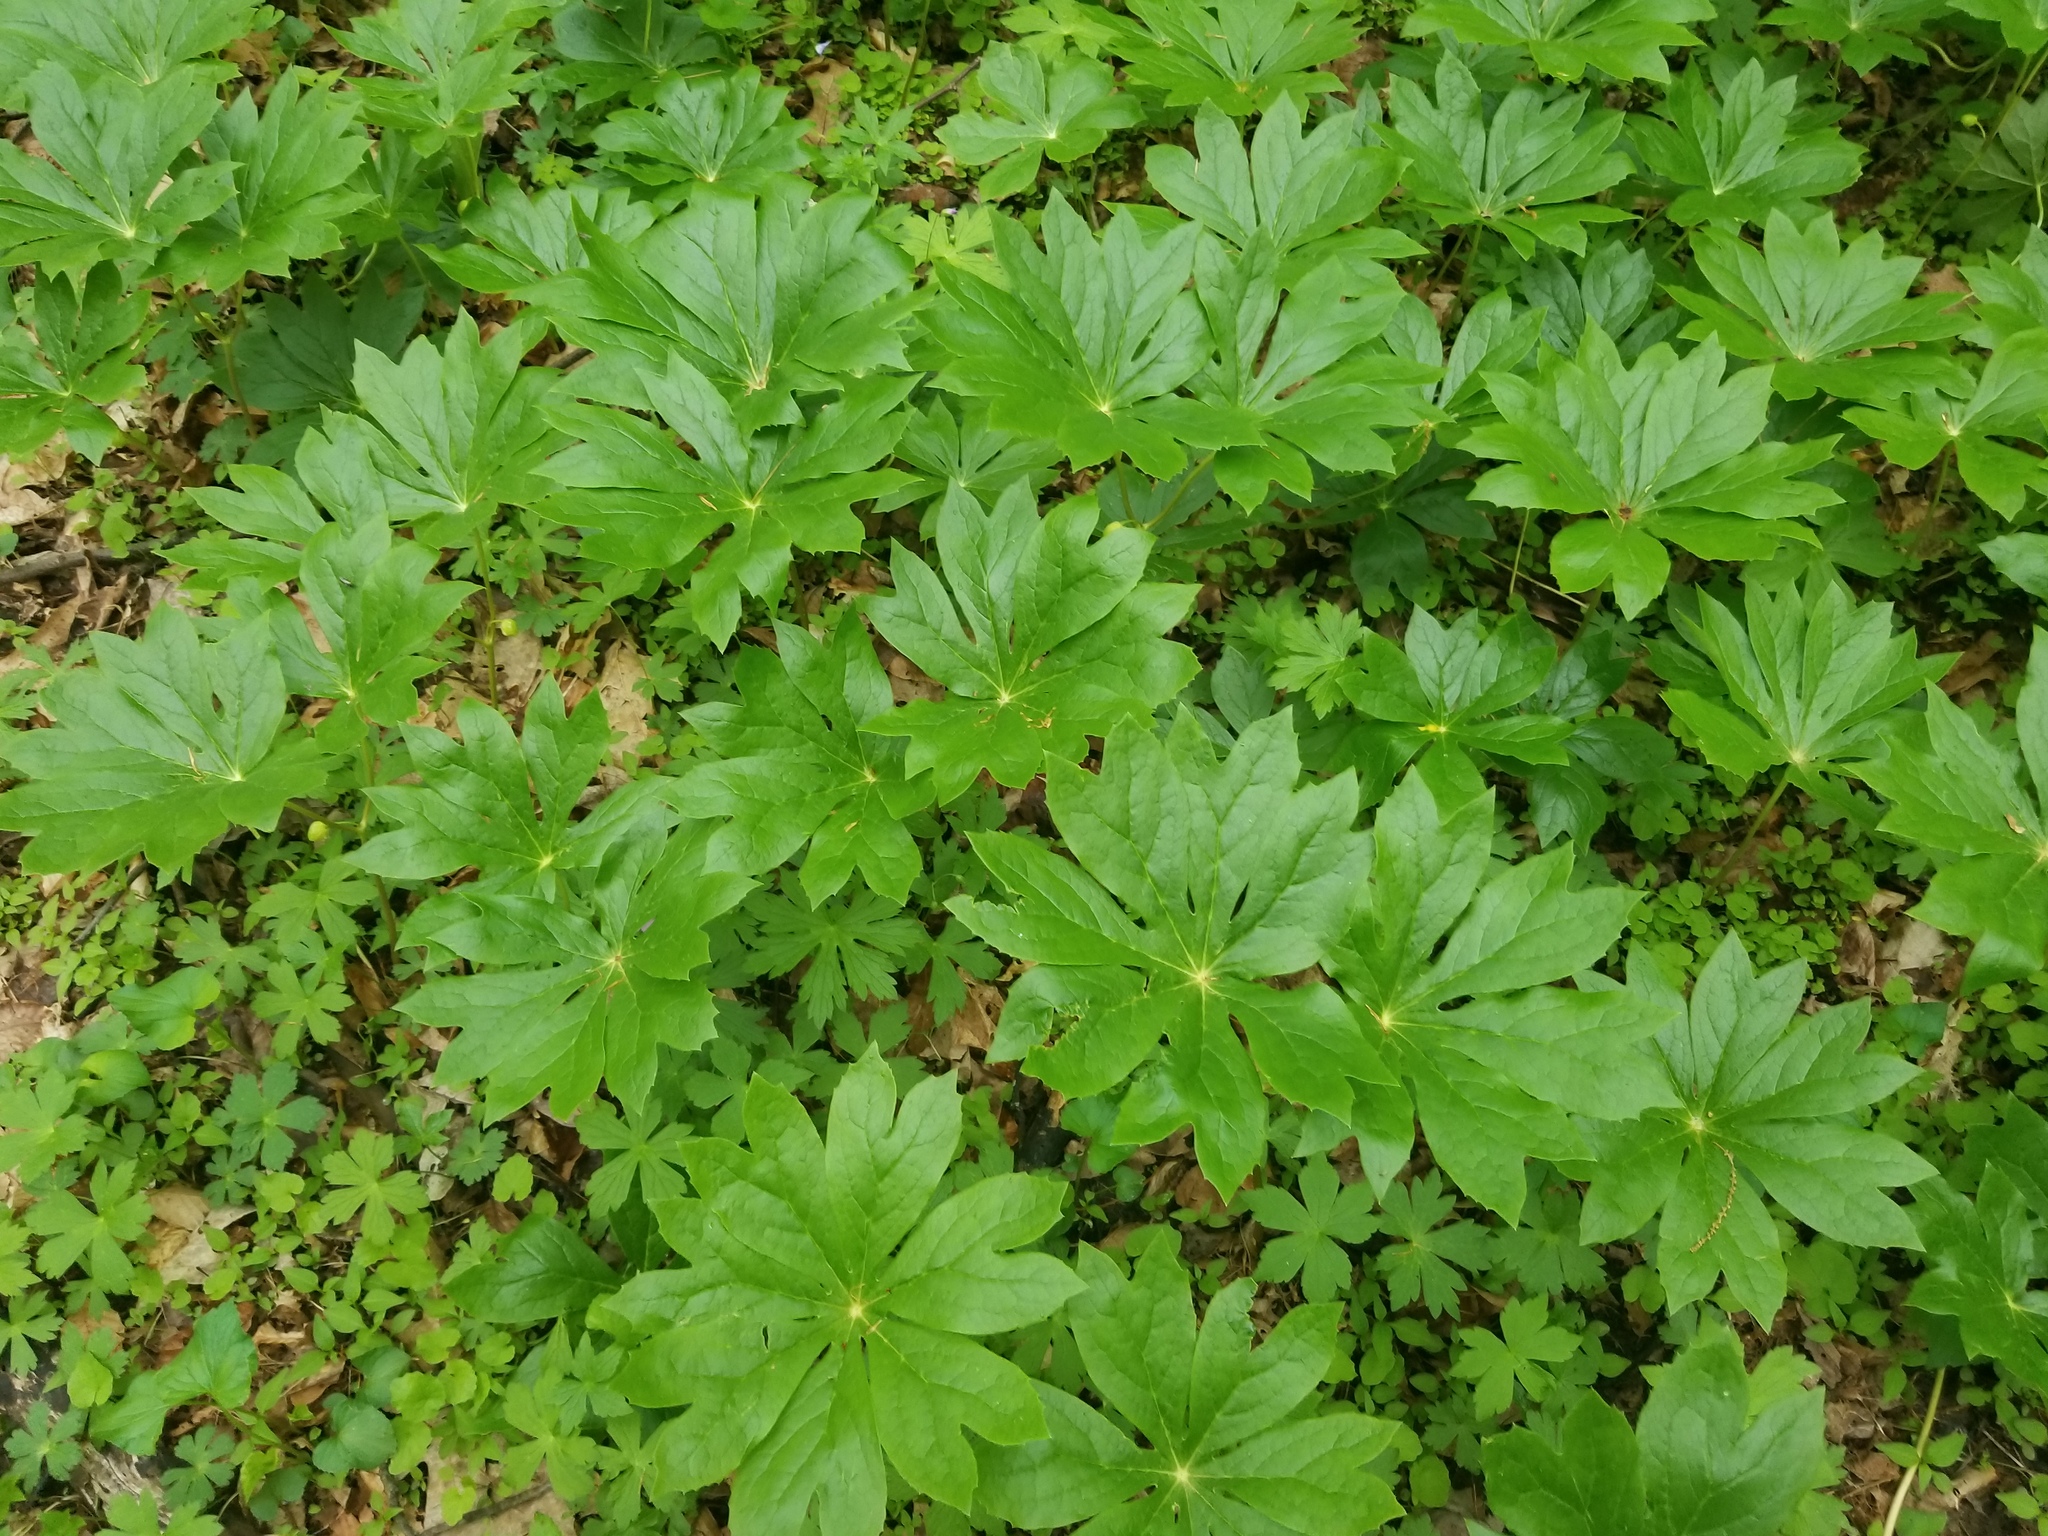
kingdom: Plantae
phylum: Tracheophyta
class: Magnoliopsida
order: Ranunculales
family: Berberidaceae
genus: Podophyllum
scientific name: Podophyllum peltatum
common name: Wild mandrake
